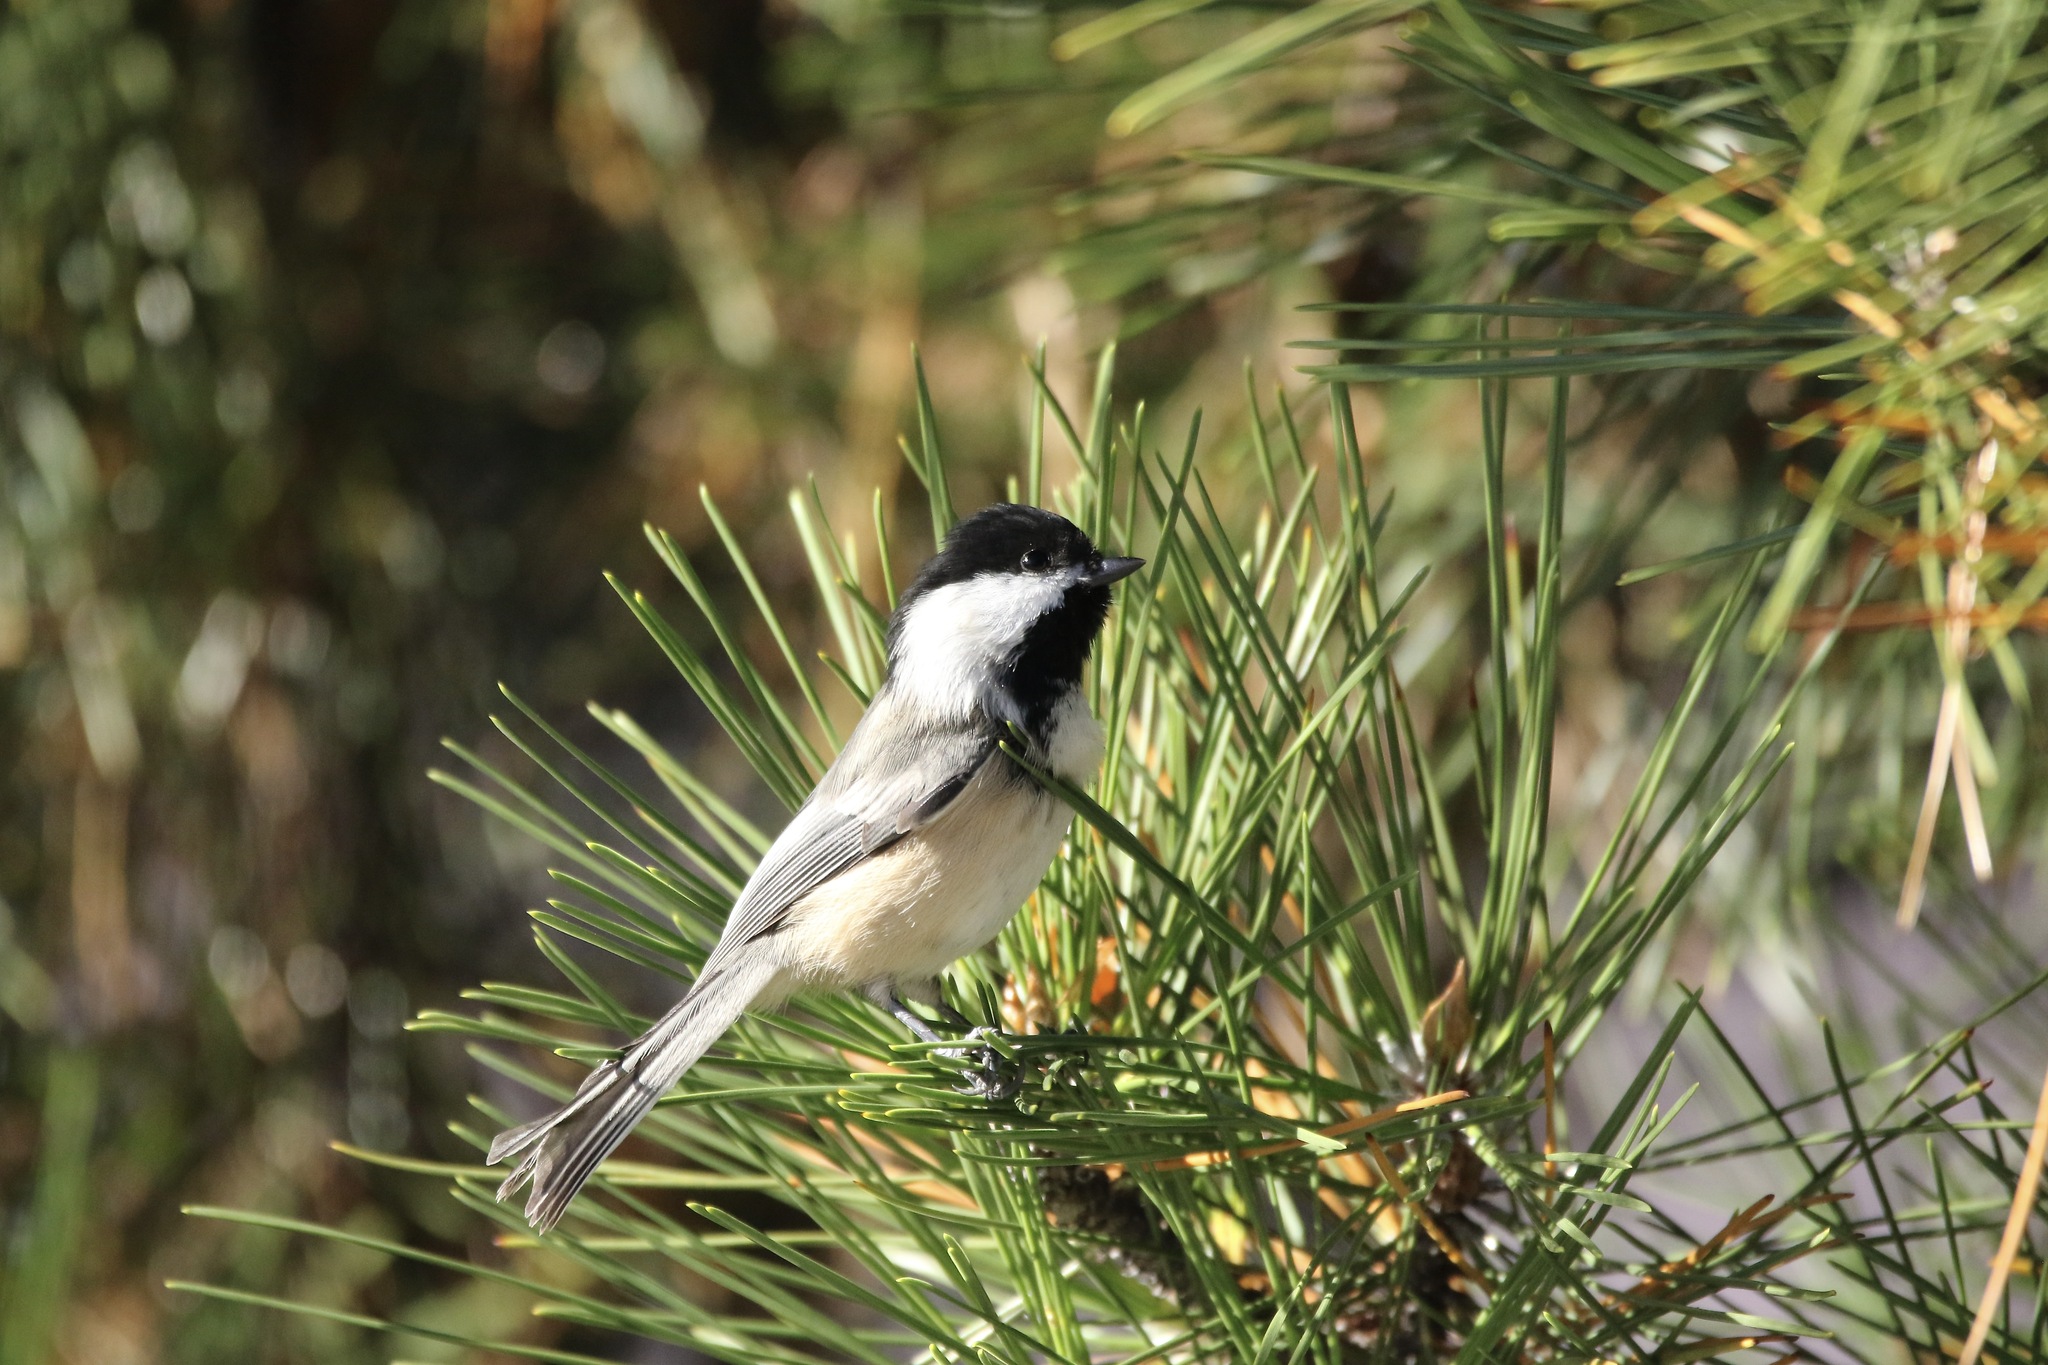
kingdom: Animalia
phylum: Chordata
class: Aves
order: Passeriformes
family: Paridae
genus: Poecile
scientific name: Poecile atricapillus
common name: Black-capped chickadee
